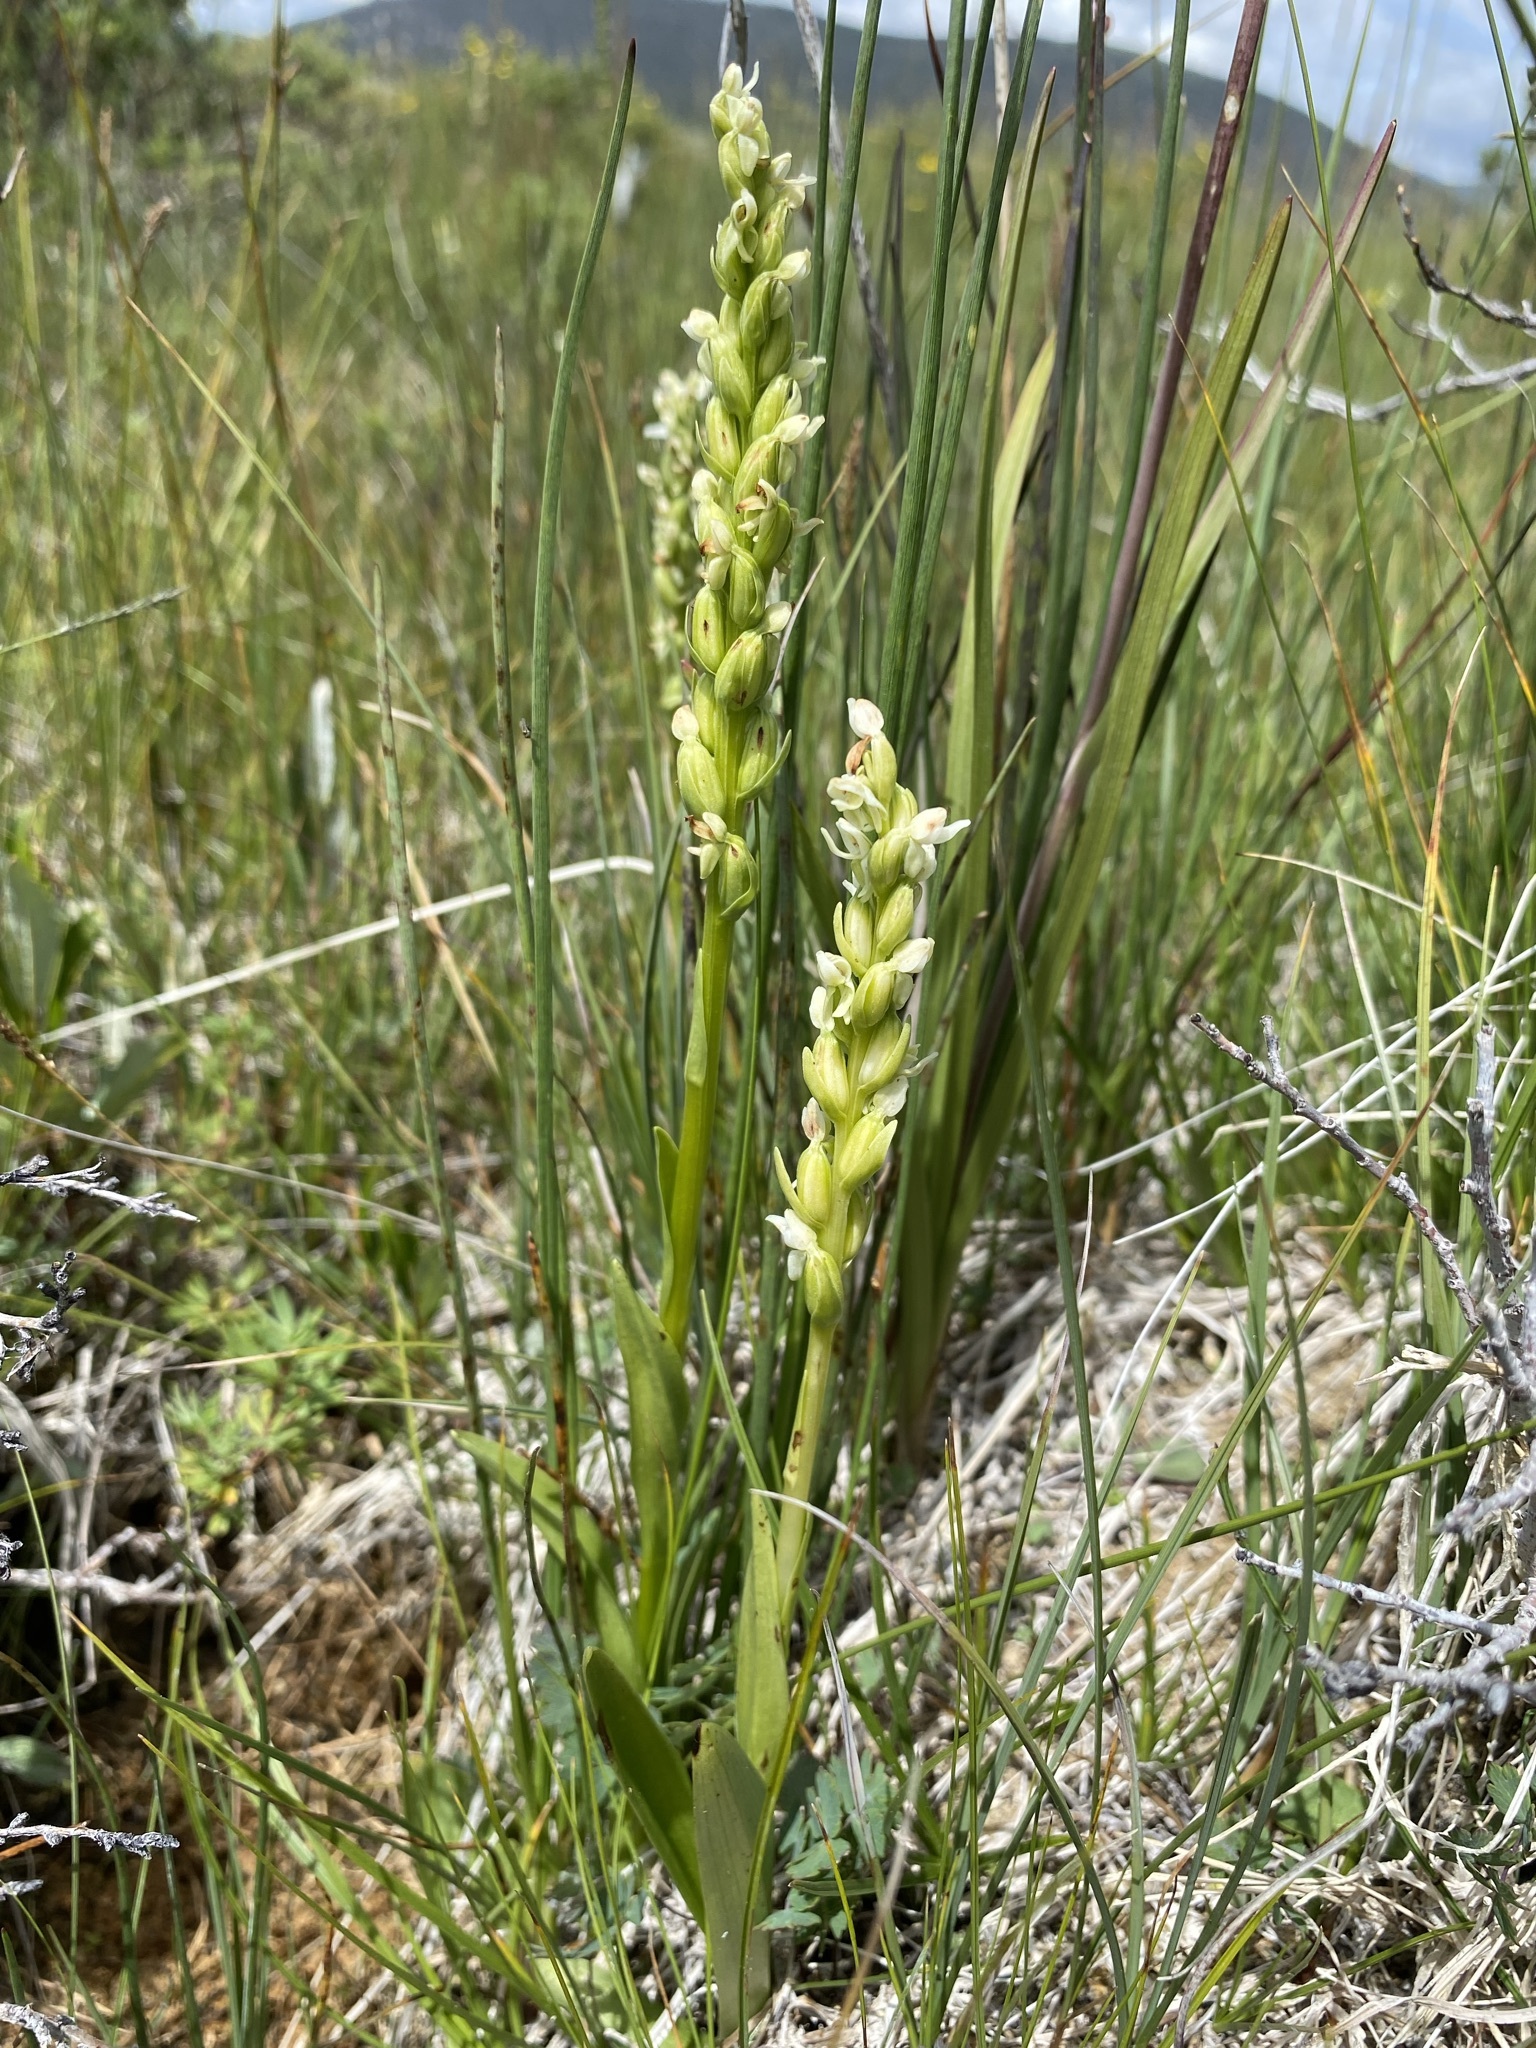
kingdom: Plantae
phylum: Tracheophyta
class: Liliopsida
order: Asparagales
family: Orchidaceae
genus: Platanthera
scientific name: Platanthera huronensis
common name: Fragrant green orchid
